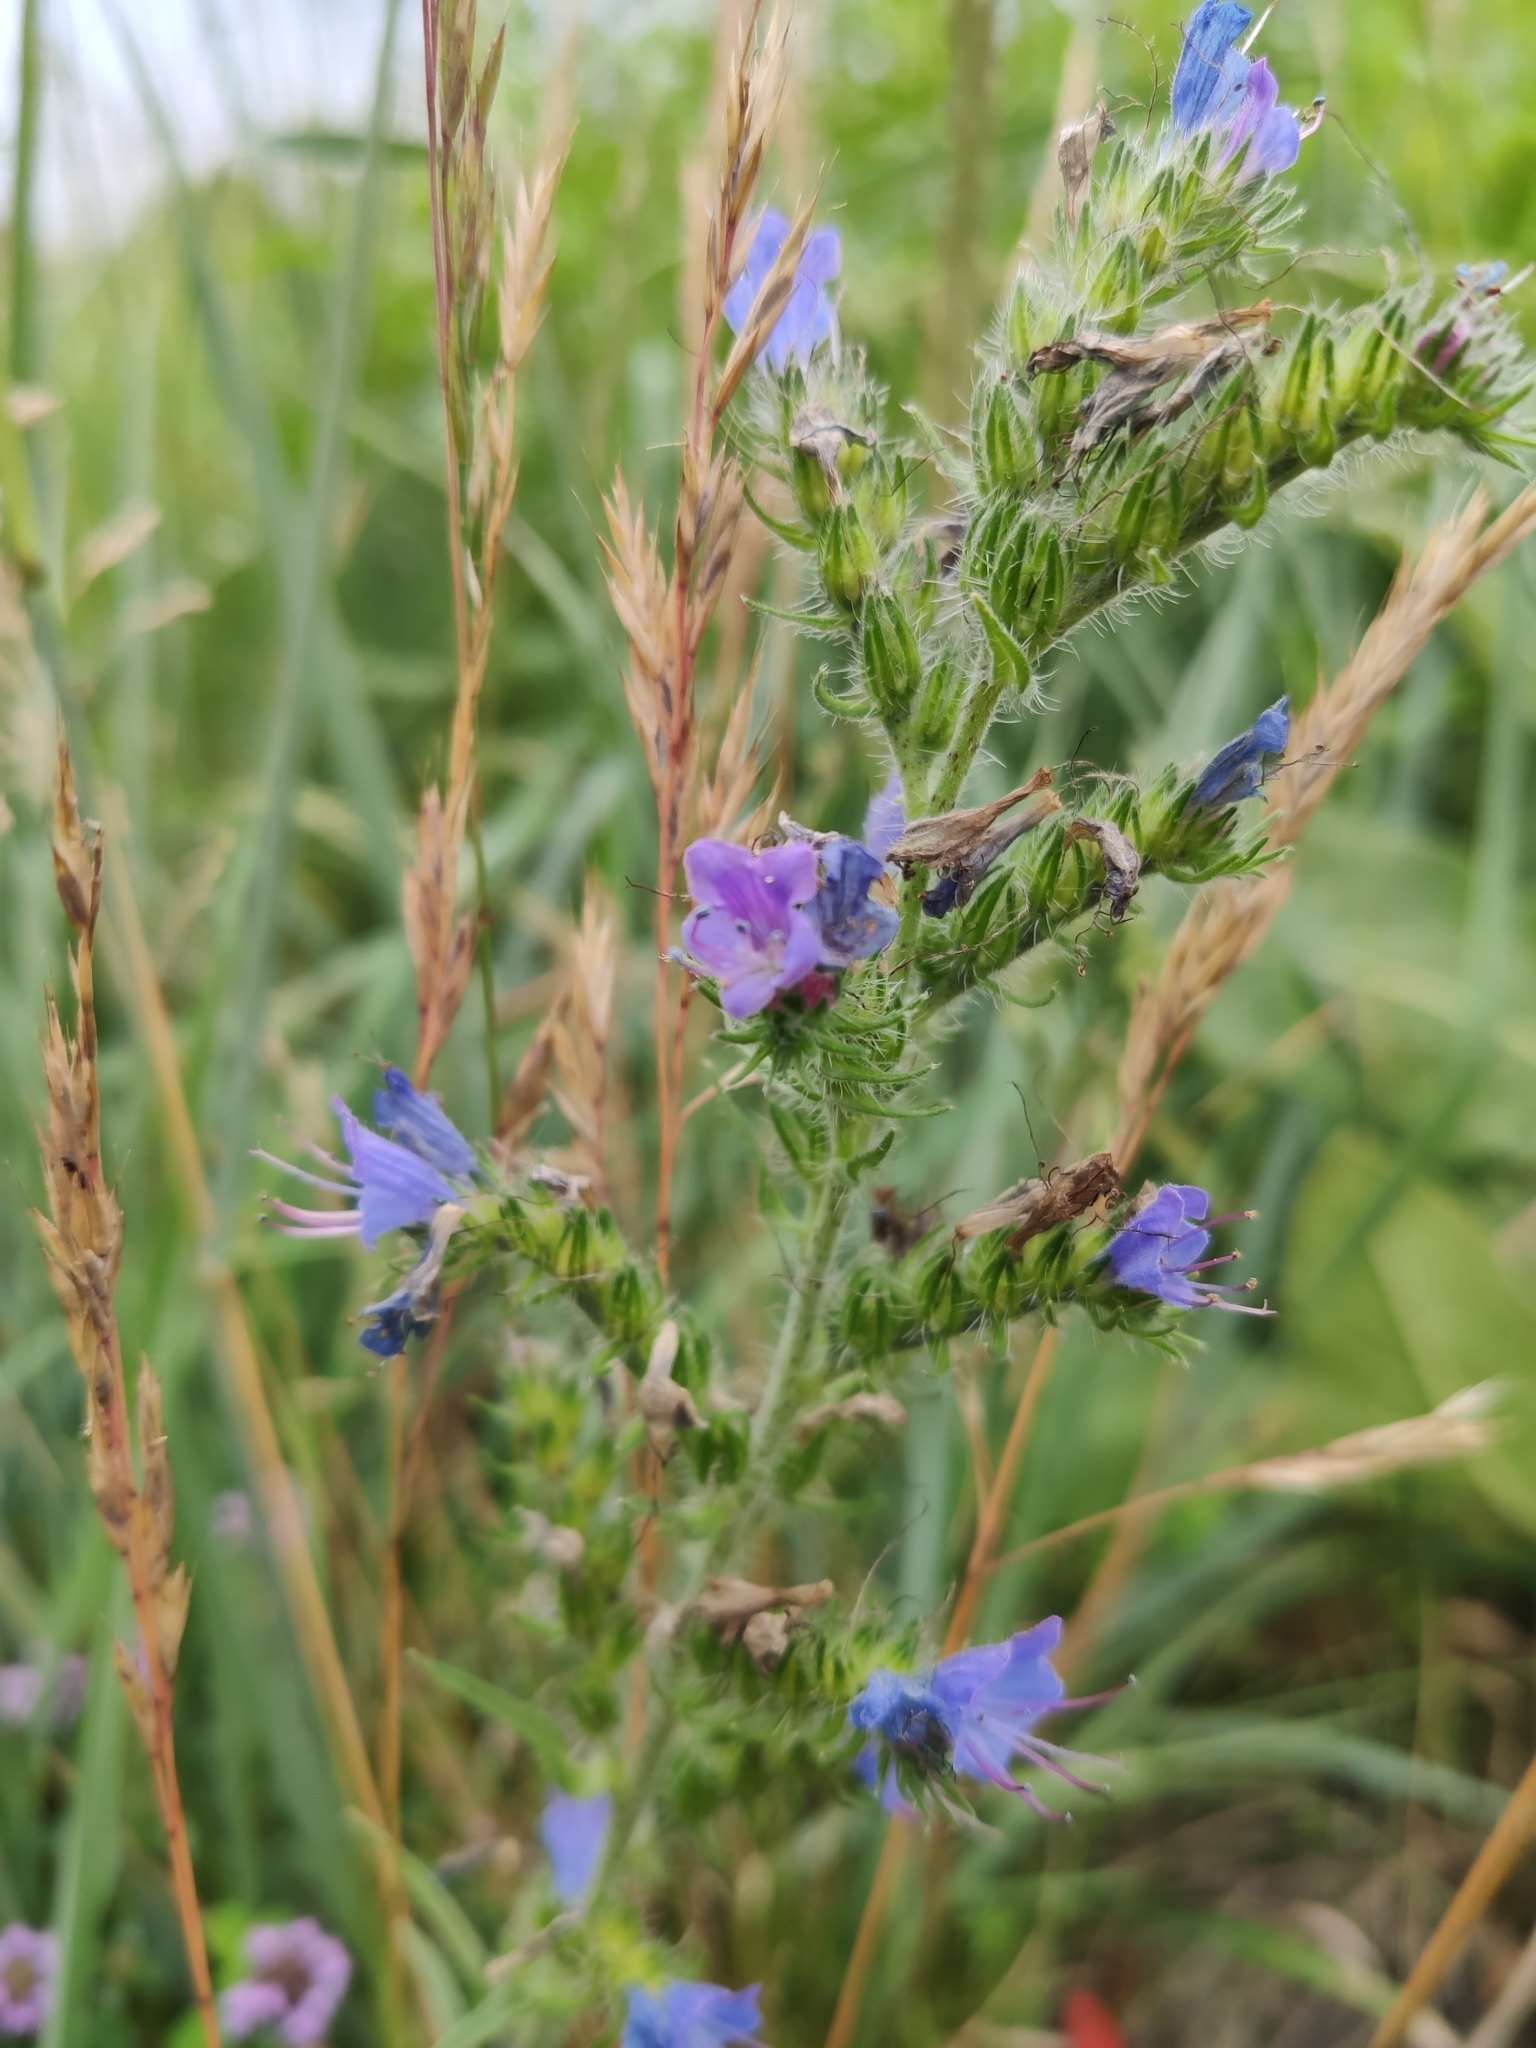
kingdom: Plantae
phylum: Tracheophyta
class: Magnoliopsida
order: Boraginales
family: Boraginaceae
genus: Echium
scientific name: Echium vulgare
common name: Common viper's bugloss
